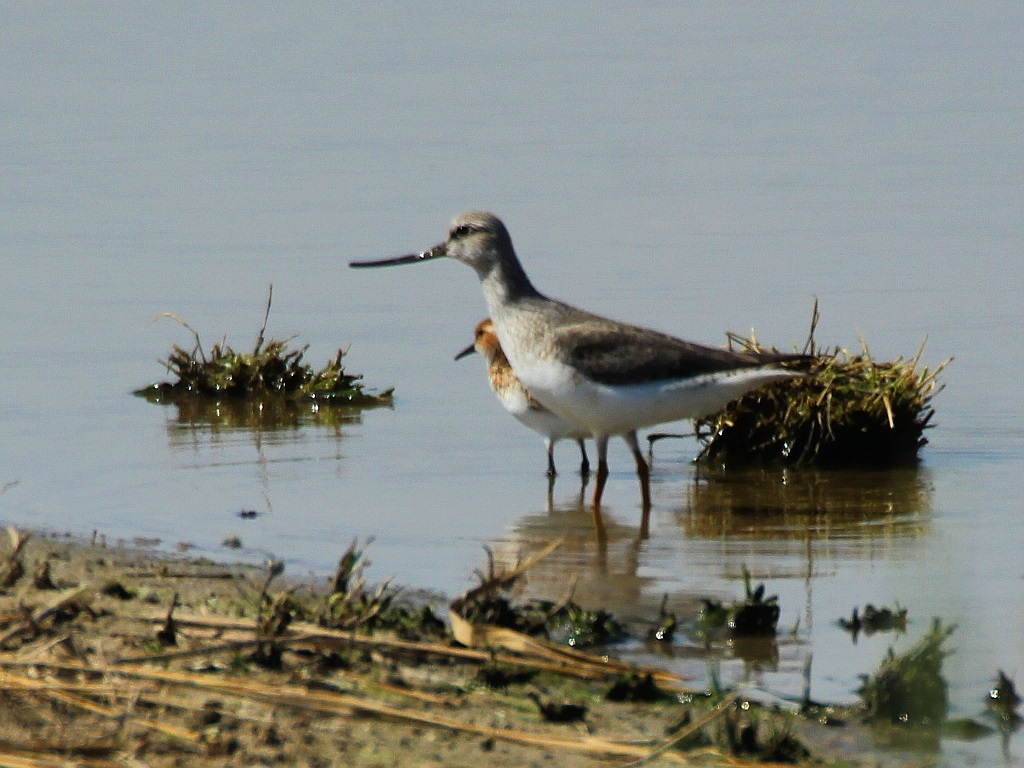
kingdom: Animalia
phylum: Chordata
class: Aves
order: Charadriiformes
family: Scolopacidae
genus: Xenus
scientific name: Xenus cinereus
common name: Terek sandpiper
